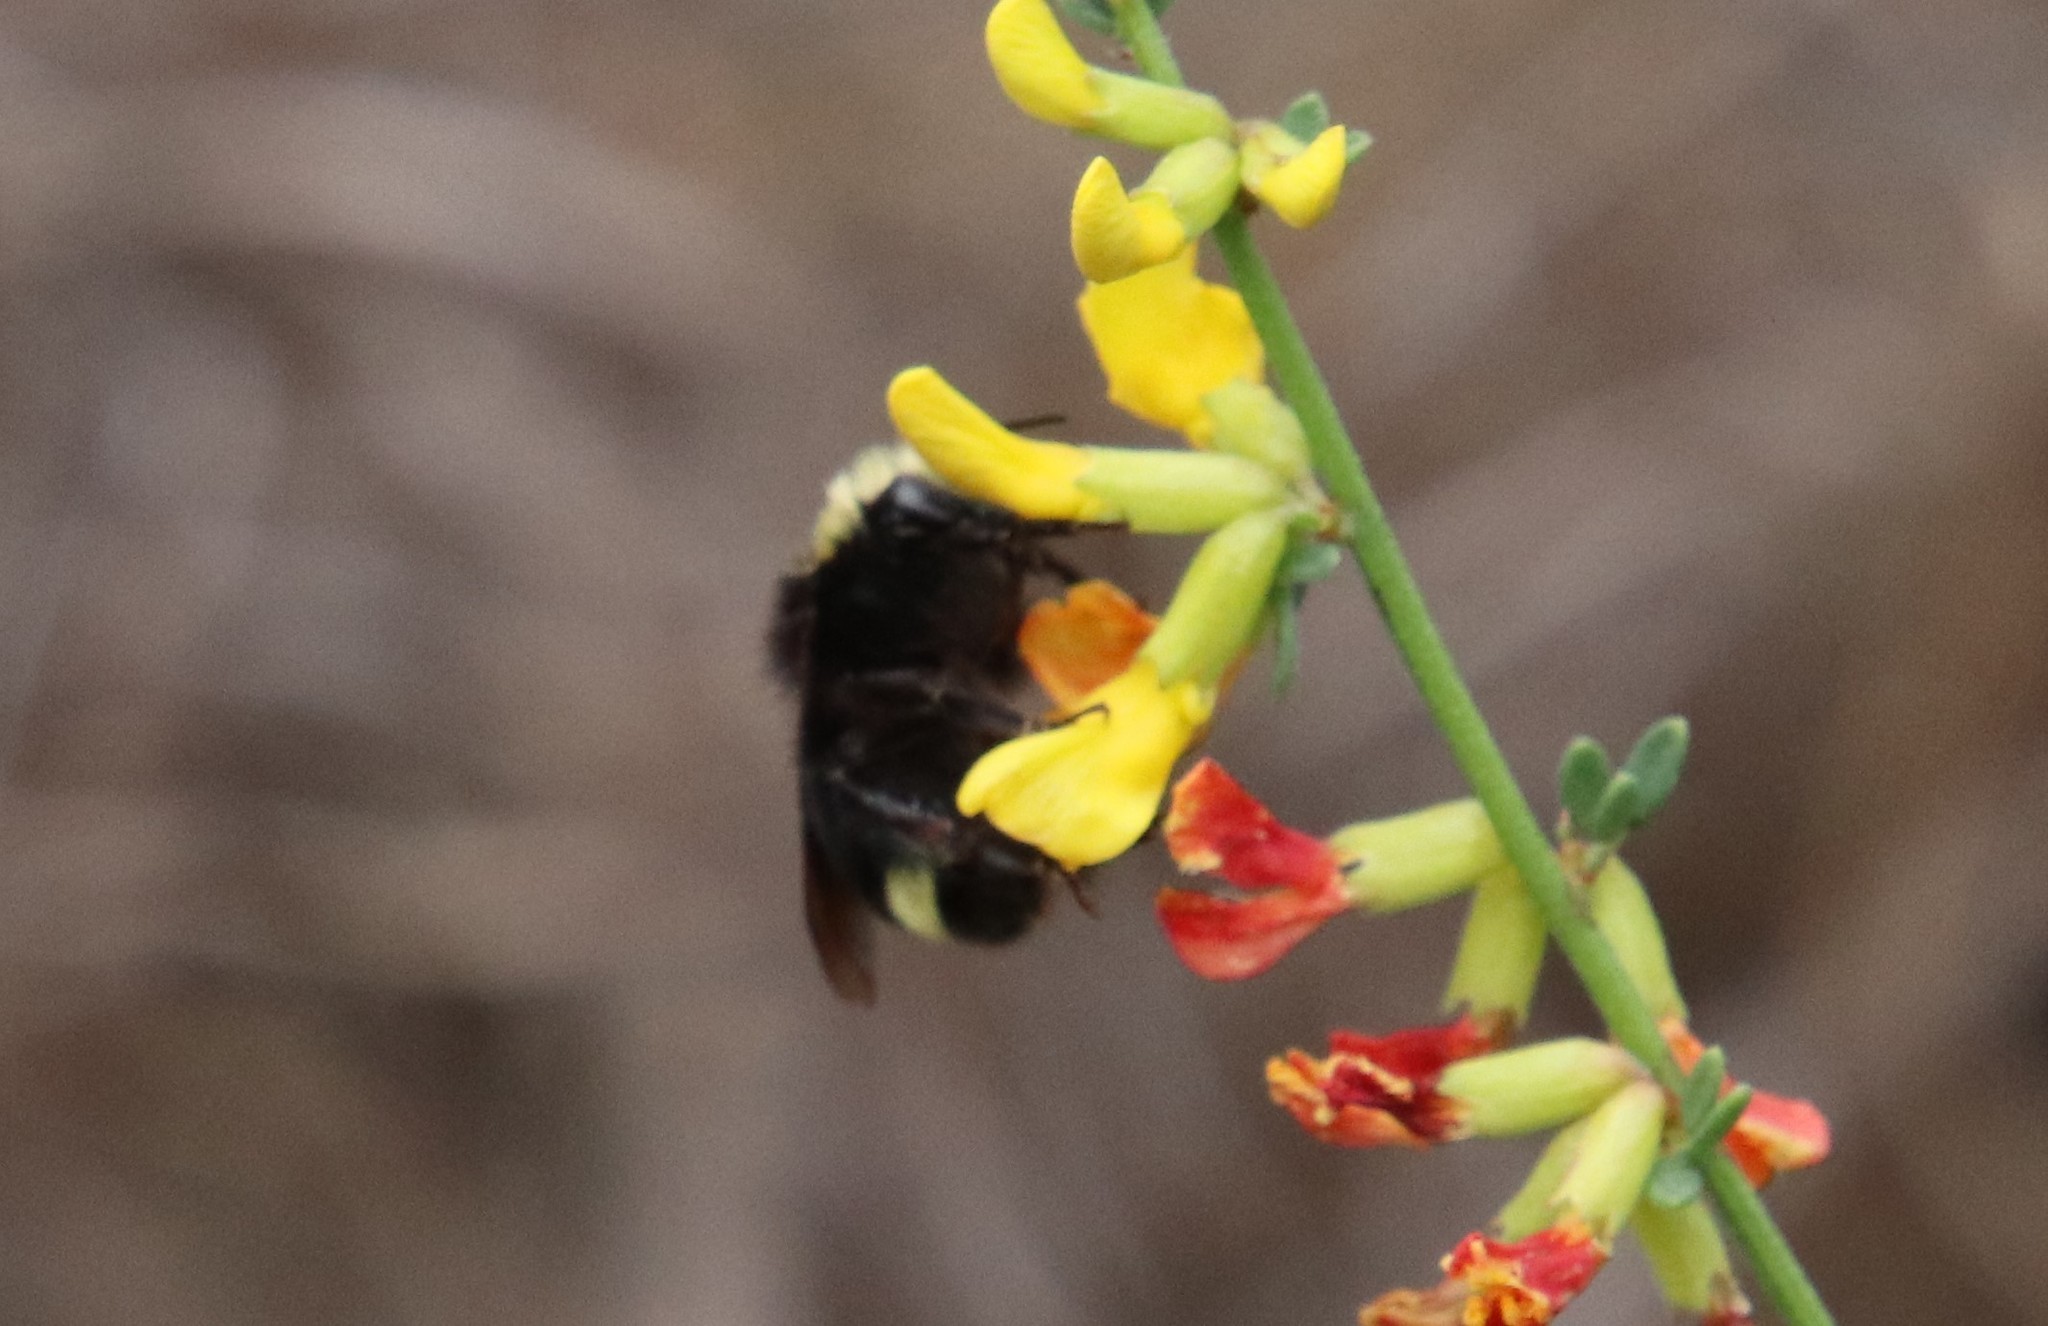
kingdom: Animalia
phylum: Arthropoda
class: Insecta
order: Hymenoptera
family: Apidae
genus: Bombus
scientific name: Bombus vosnesenskii
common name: Vosnesensky bumble bee
